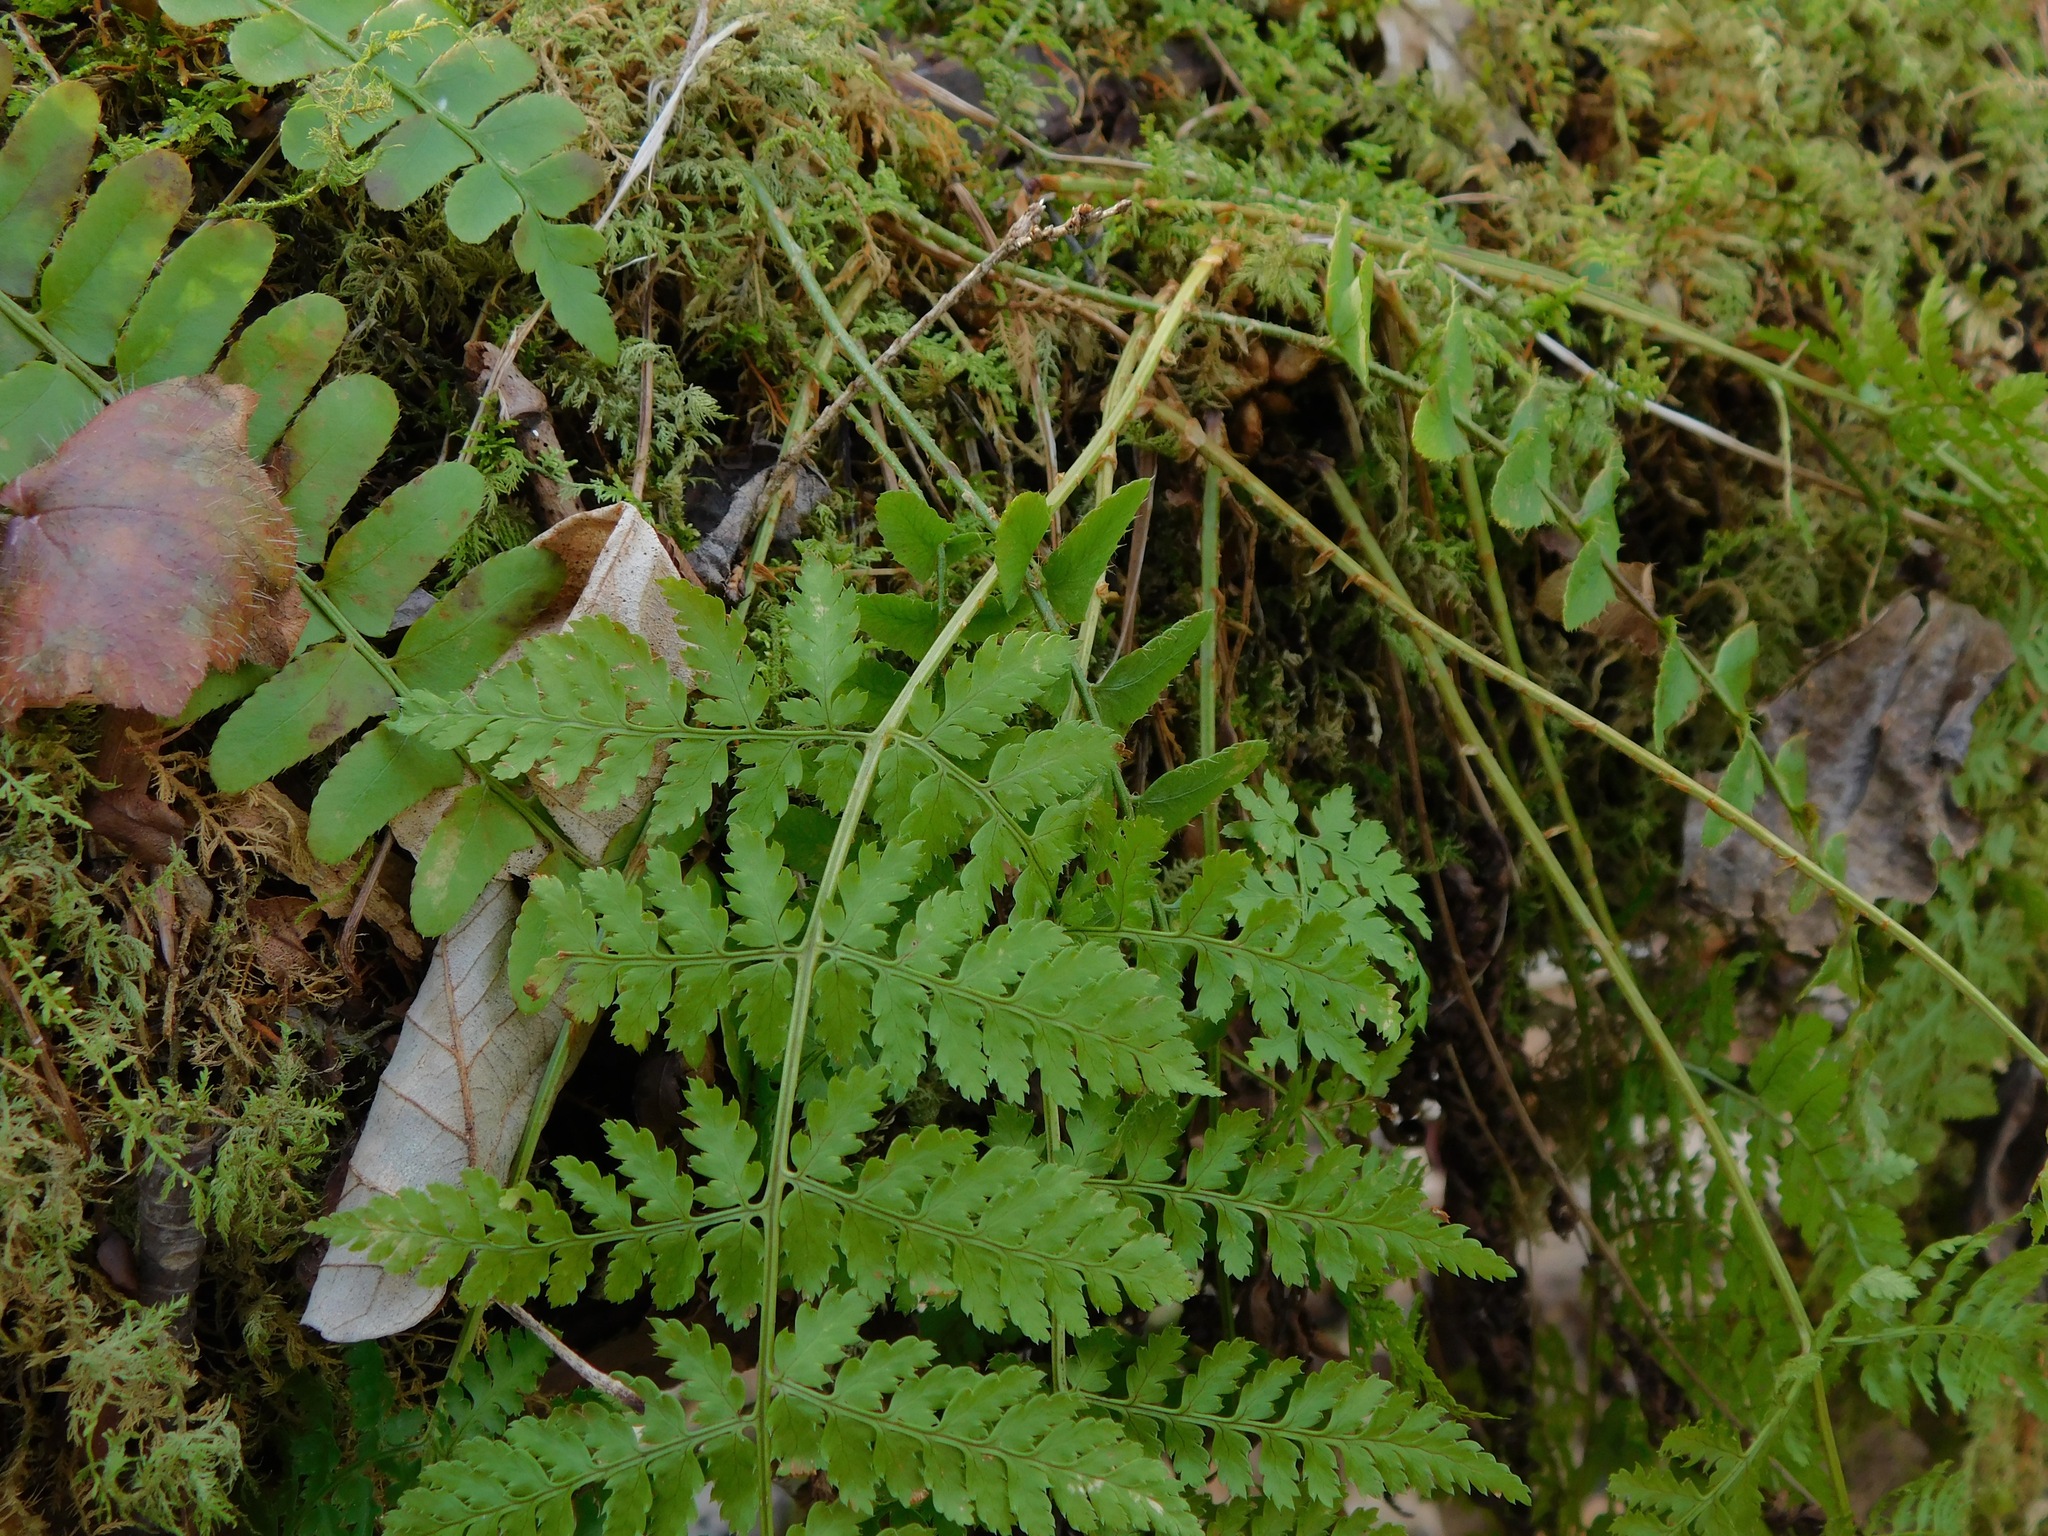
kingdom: Plantae
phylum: Tracheophyta
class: Polypodiopsida
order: Polypodiales
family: Dryopteridaceae
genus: Dryopteris
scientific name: Dryopteris intermedia
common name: Evergreen wood fern
